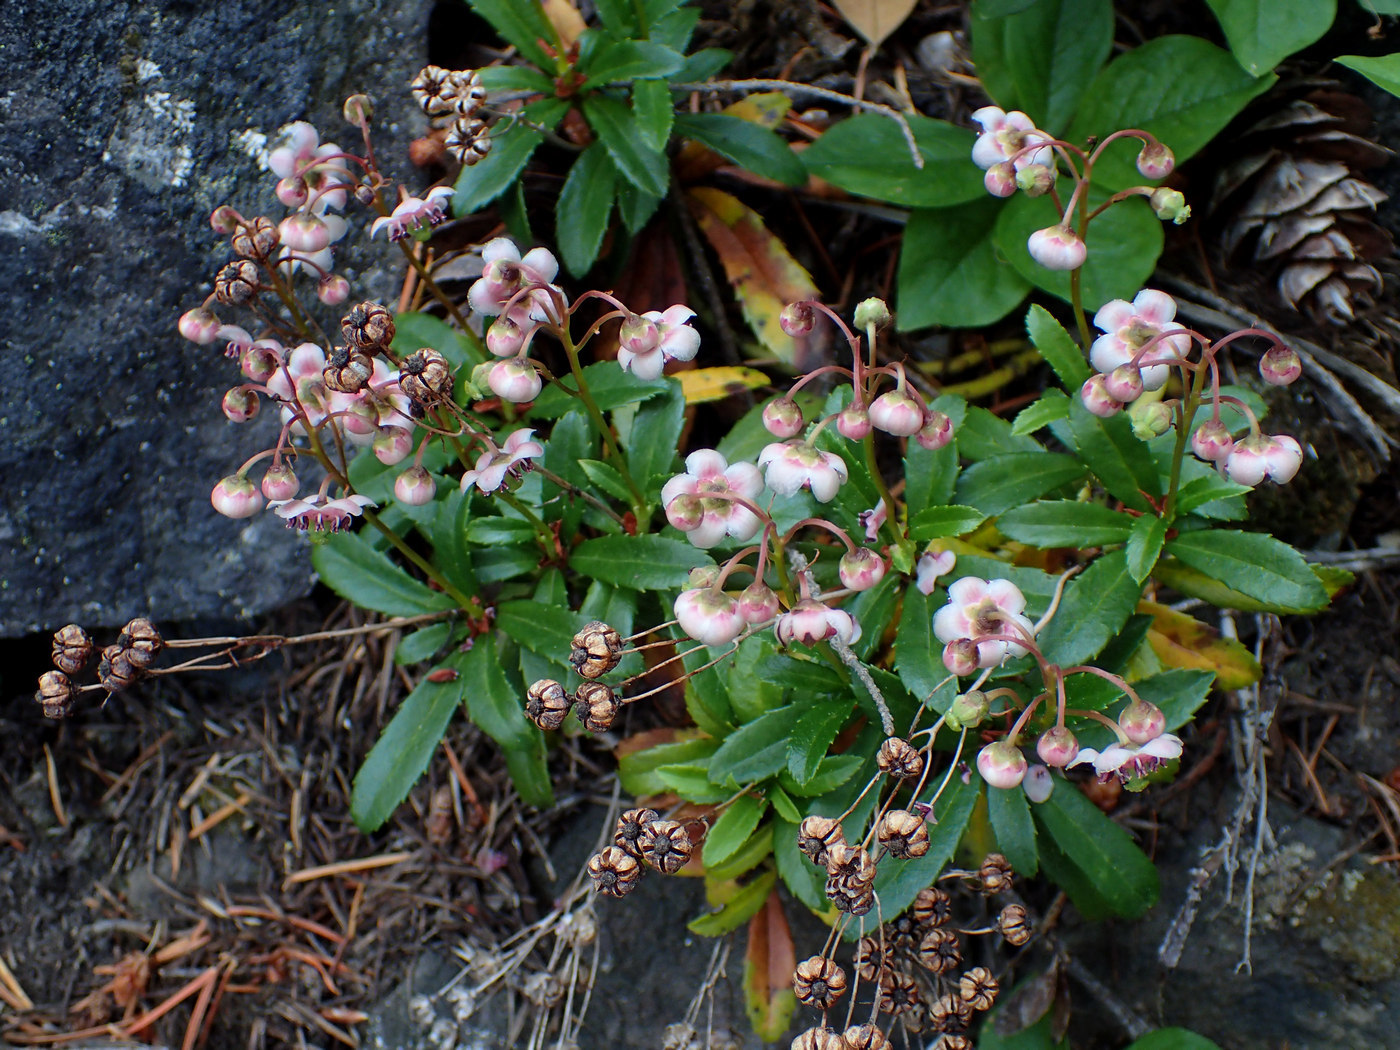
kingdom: Plantae
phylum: Tracheophyta
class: Magnoliopsida
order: Ericales
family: Ericaceae
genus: Chimaphila
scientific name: Chimaphila umbellata
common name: Pipsissewa
